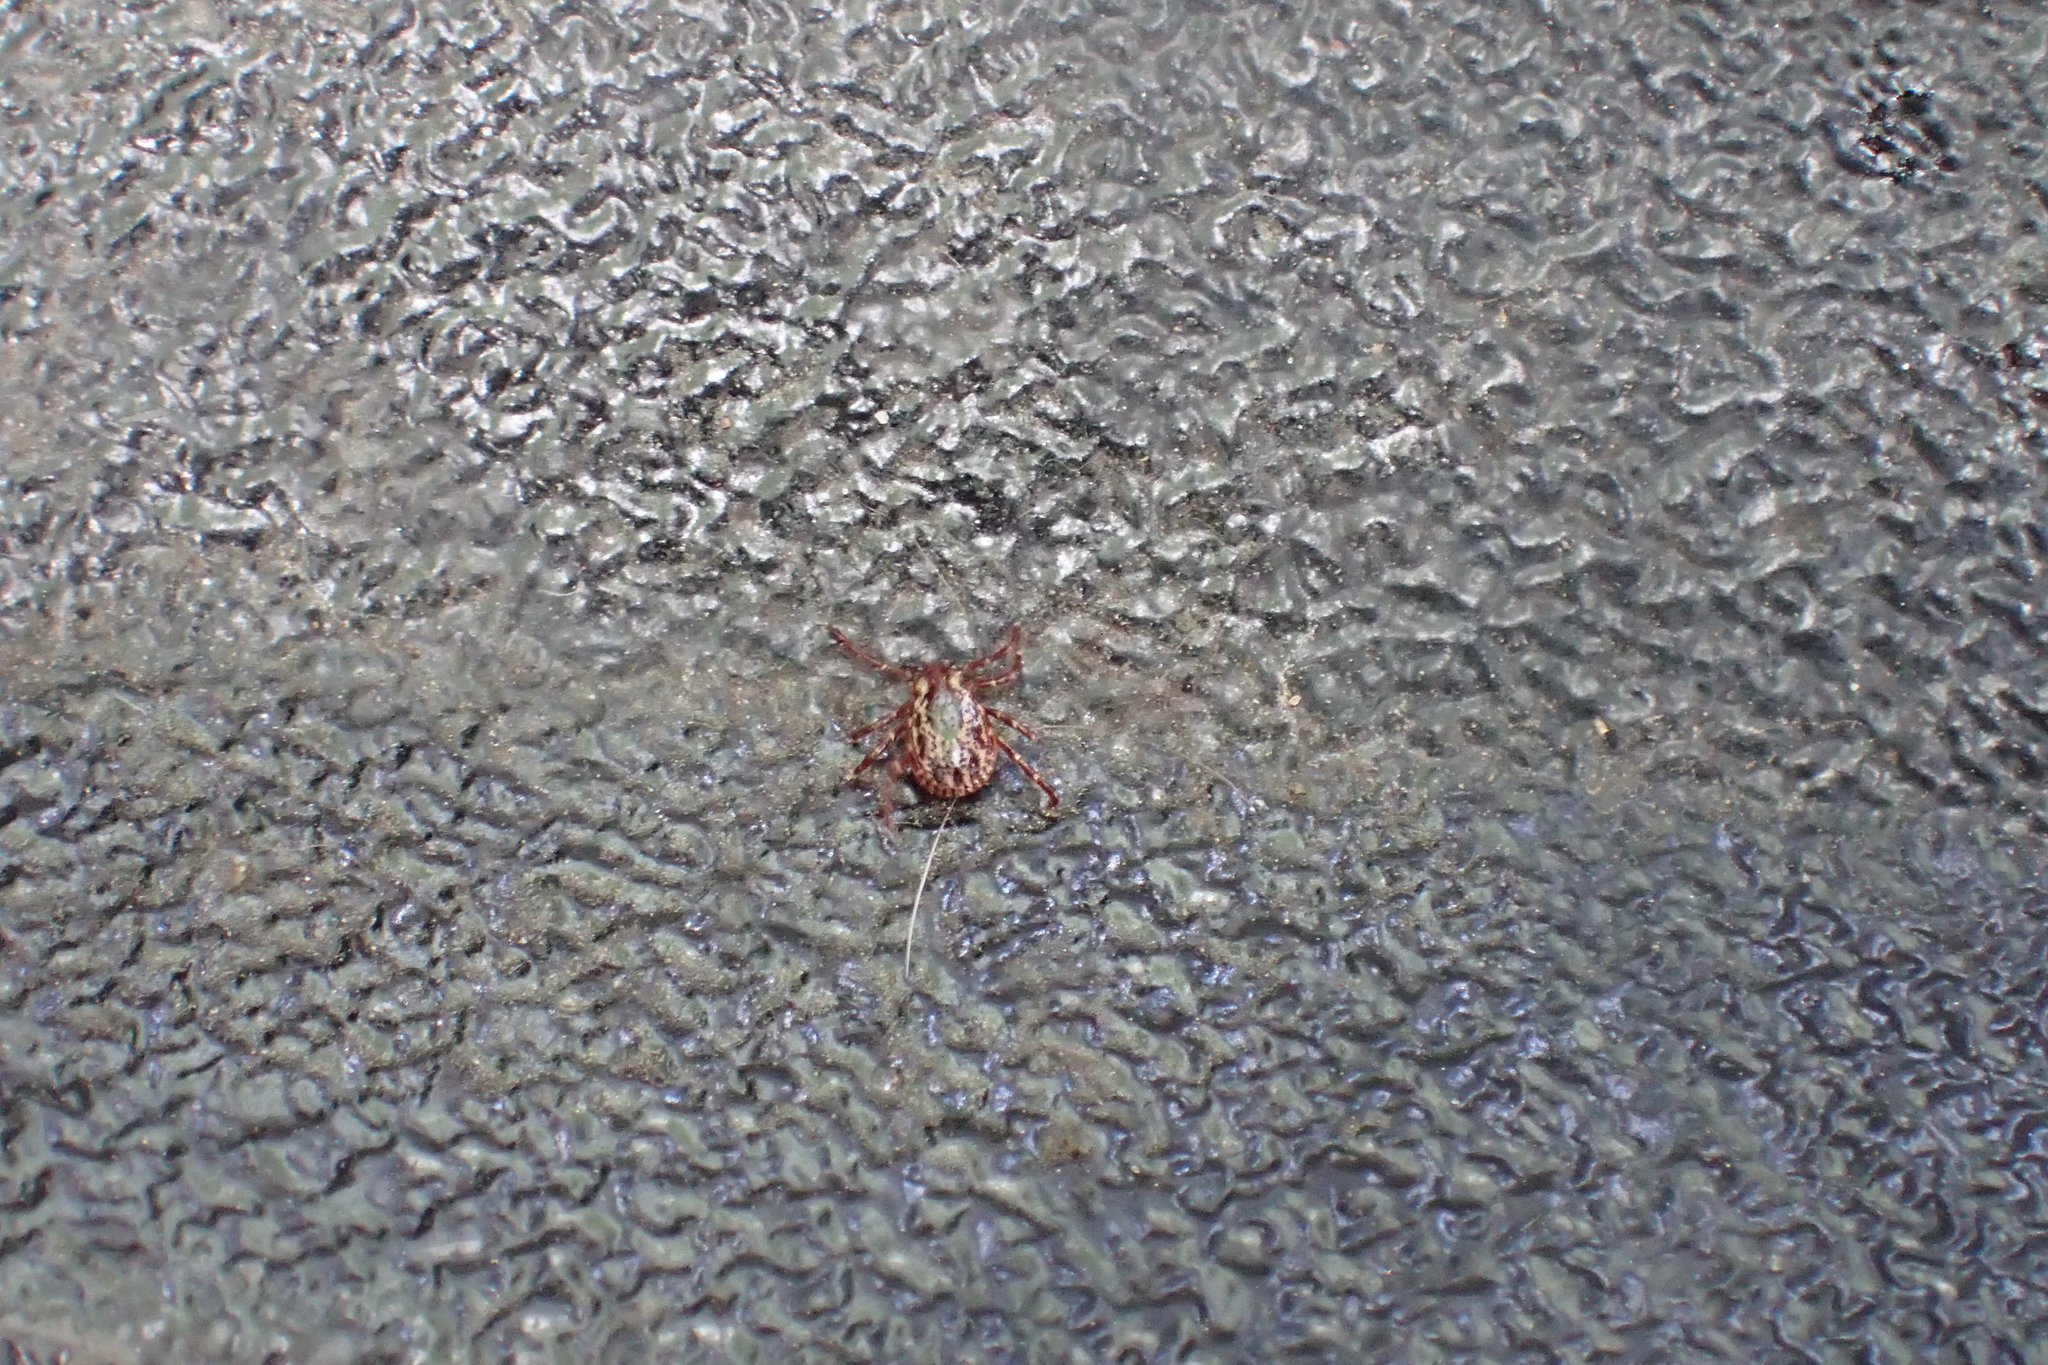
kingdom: Animalia
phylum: Arthropoda
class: Arachnida
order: Ixodida
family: Ixodidae
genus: Dermacentor
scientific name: Dermacentor variabilis
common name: American dog tick
